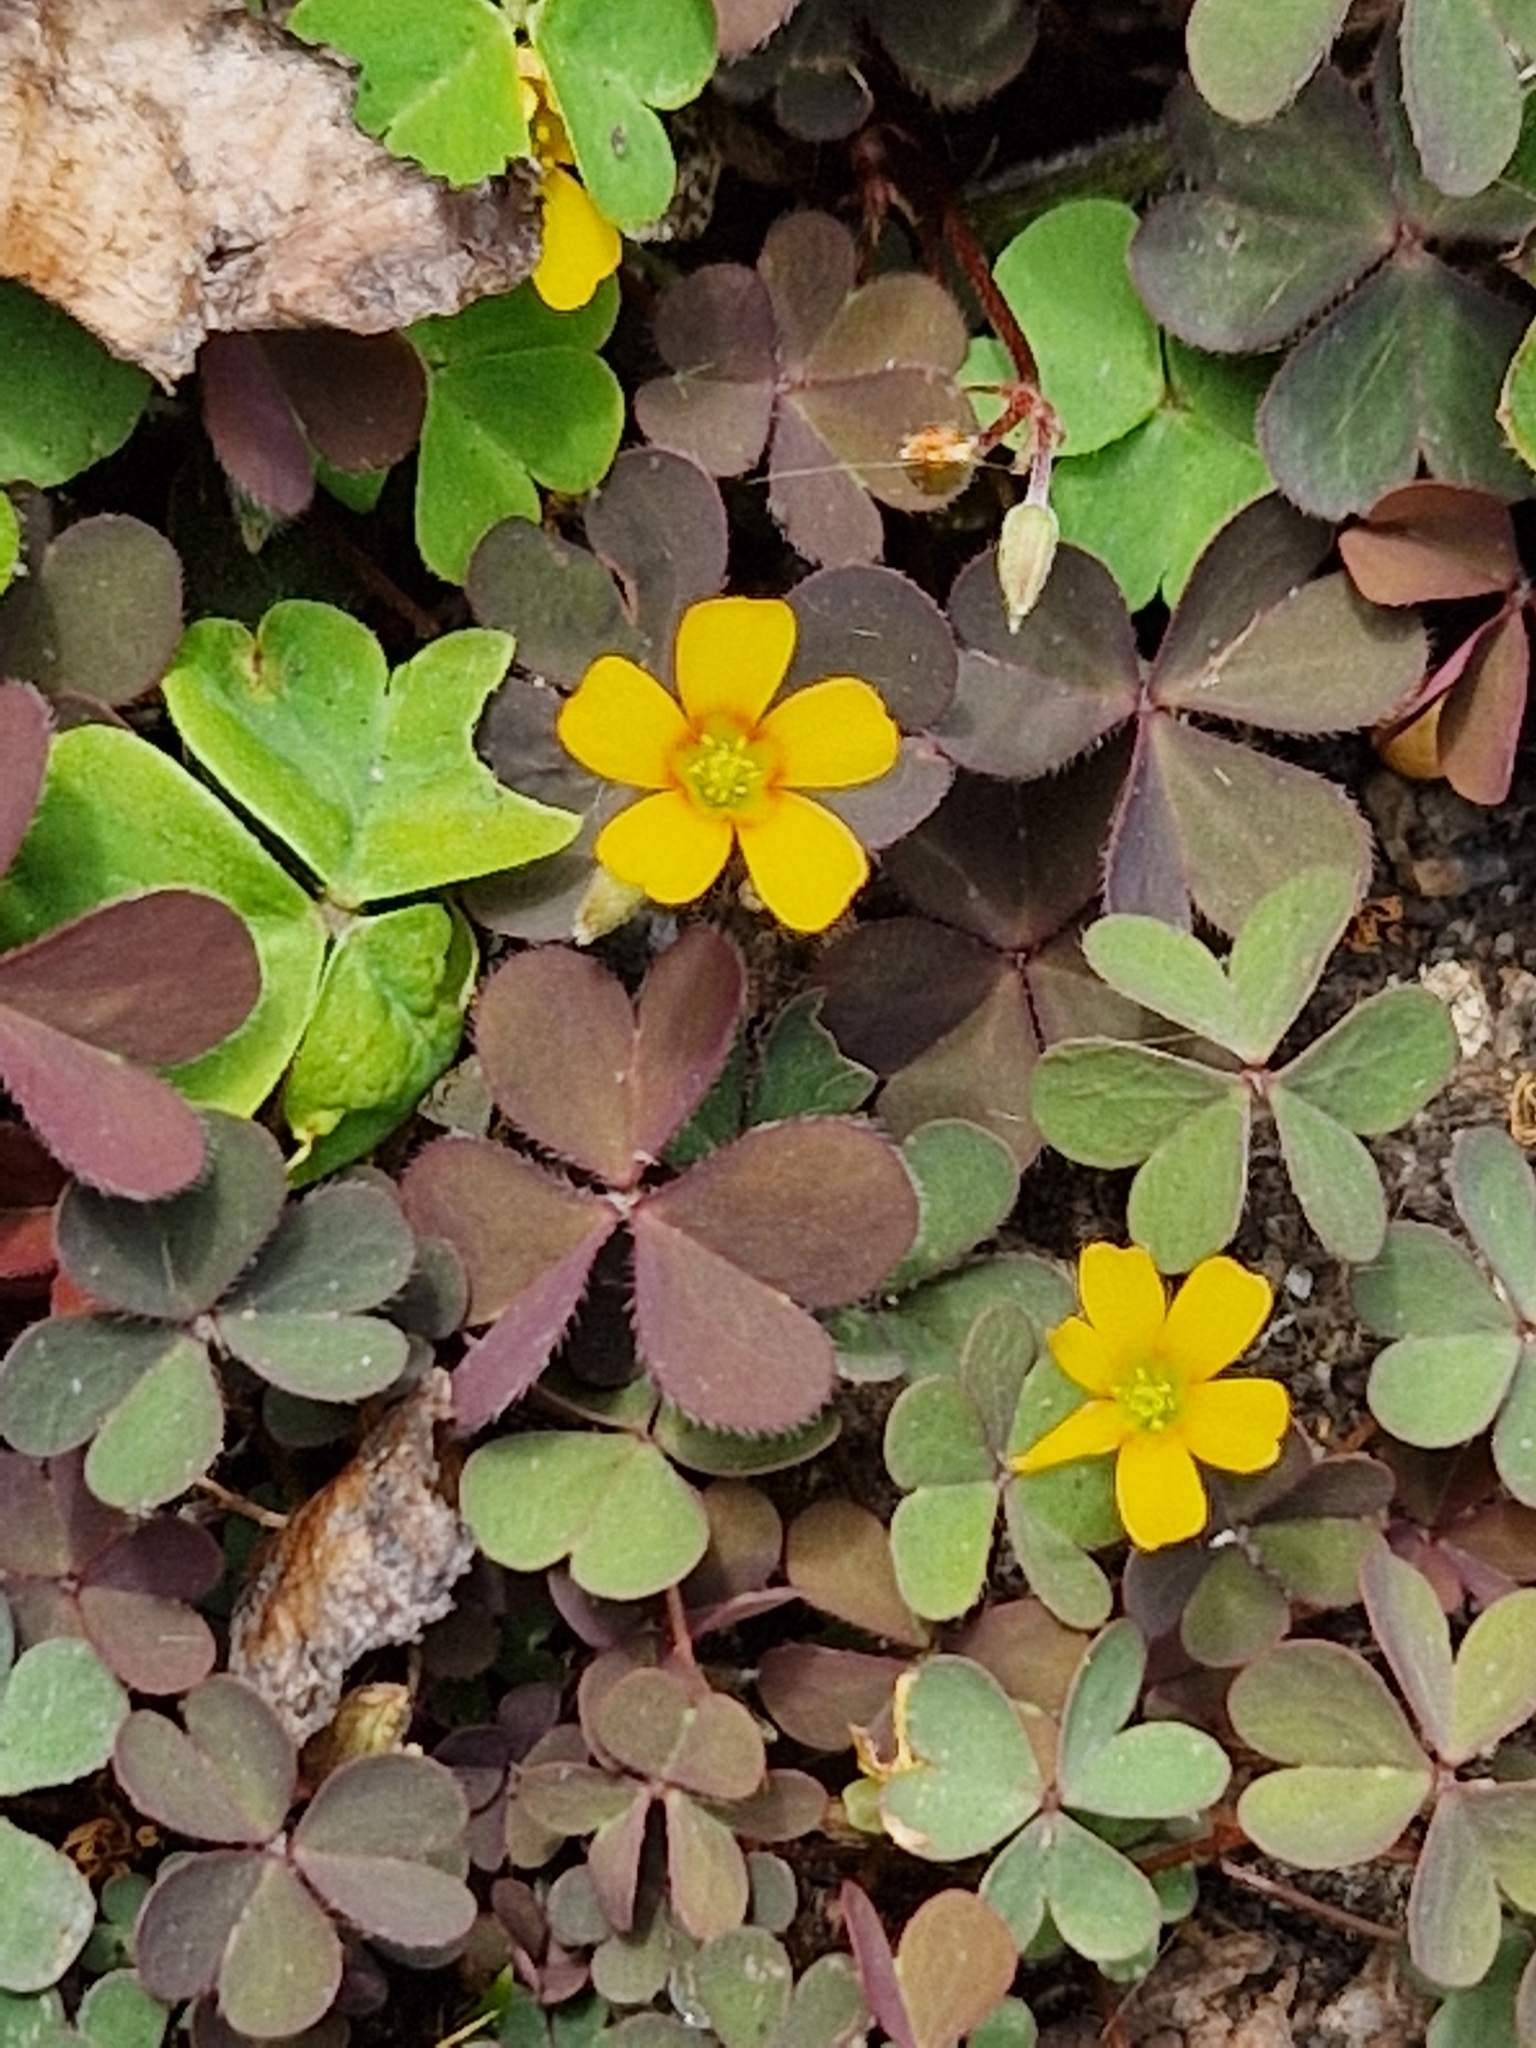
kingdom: Plantae
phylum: Tracheophyta
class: Magnoliopsida
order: Oxalidales
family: Oxalidaceae
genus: Oxalis
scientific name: Oxalis corniculata
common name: Procumbent yellow-sorrel
